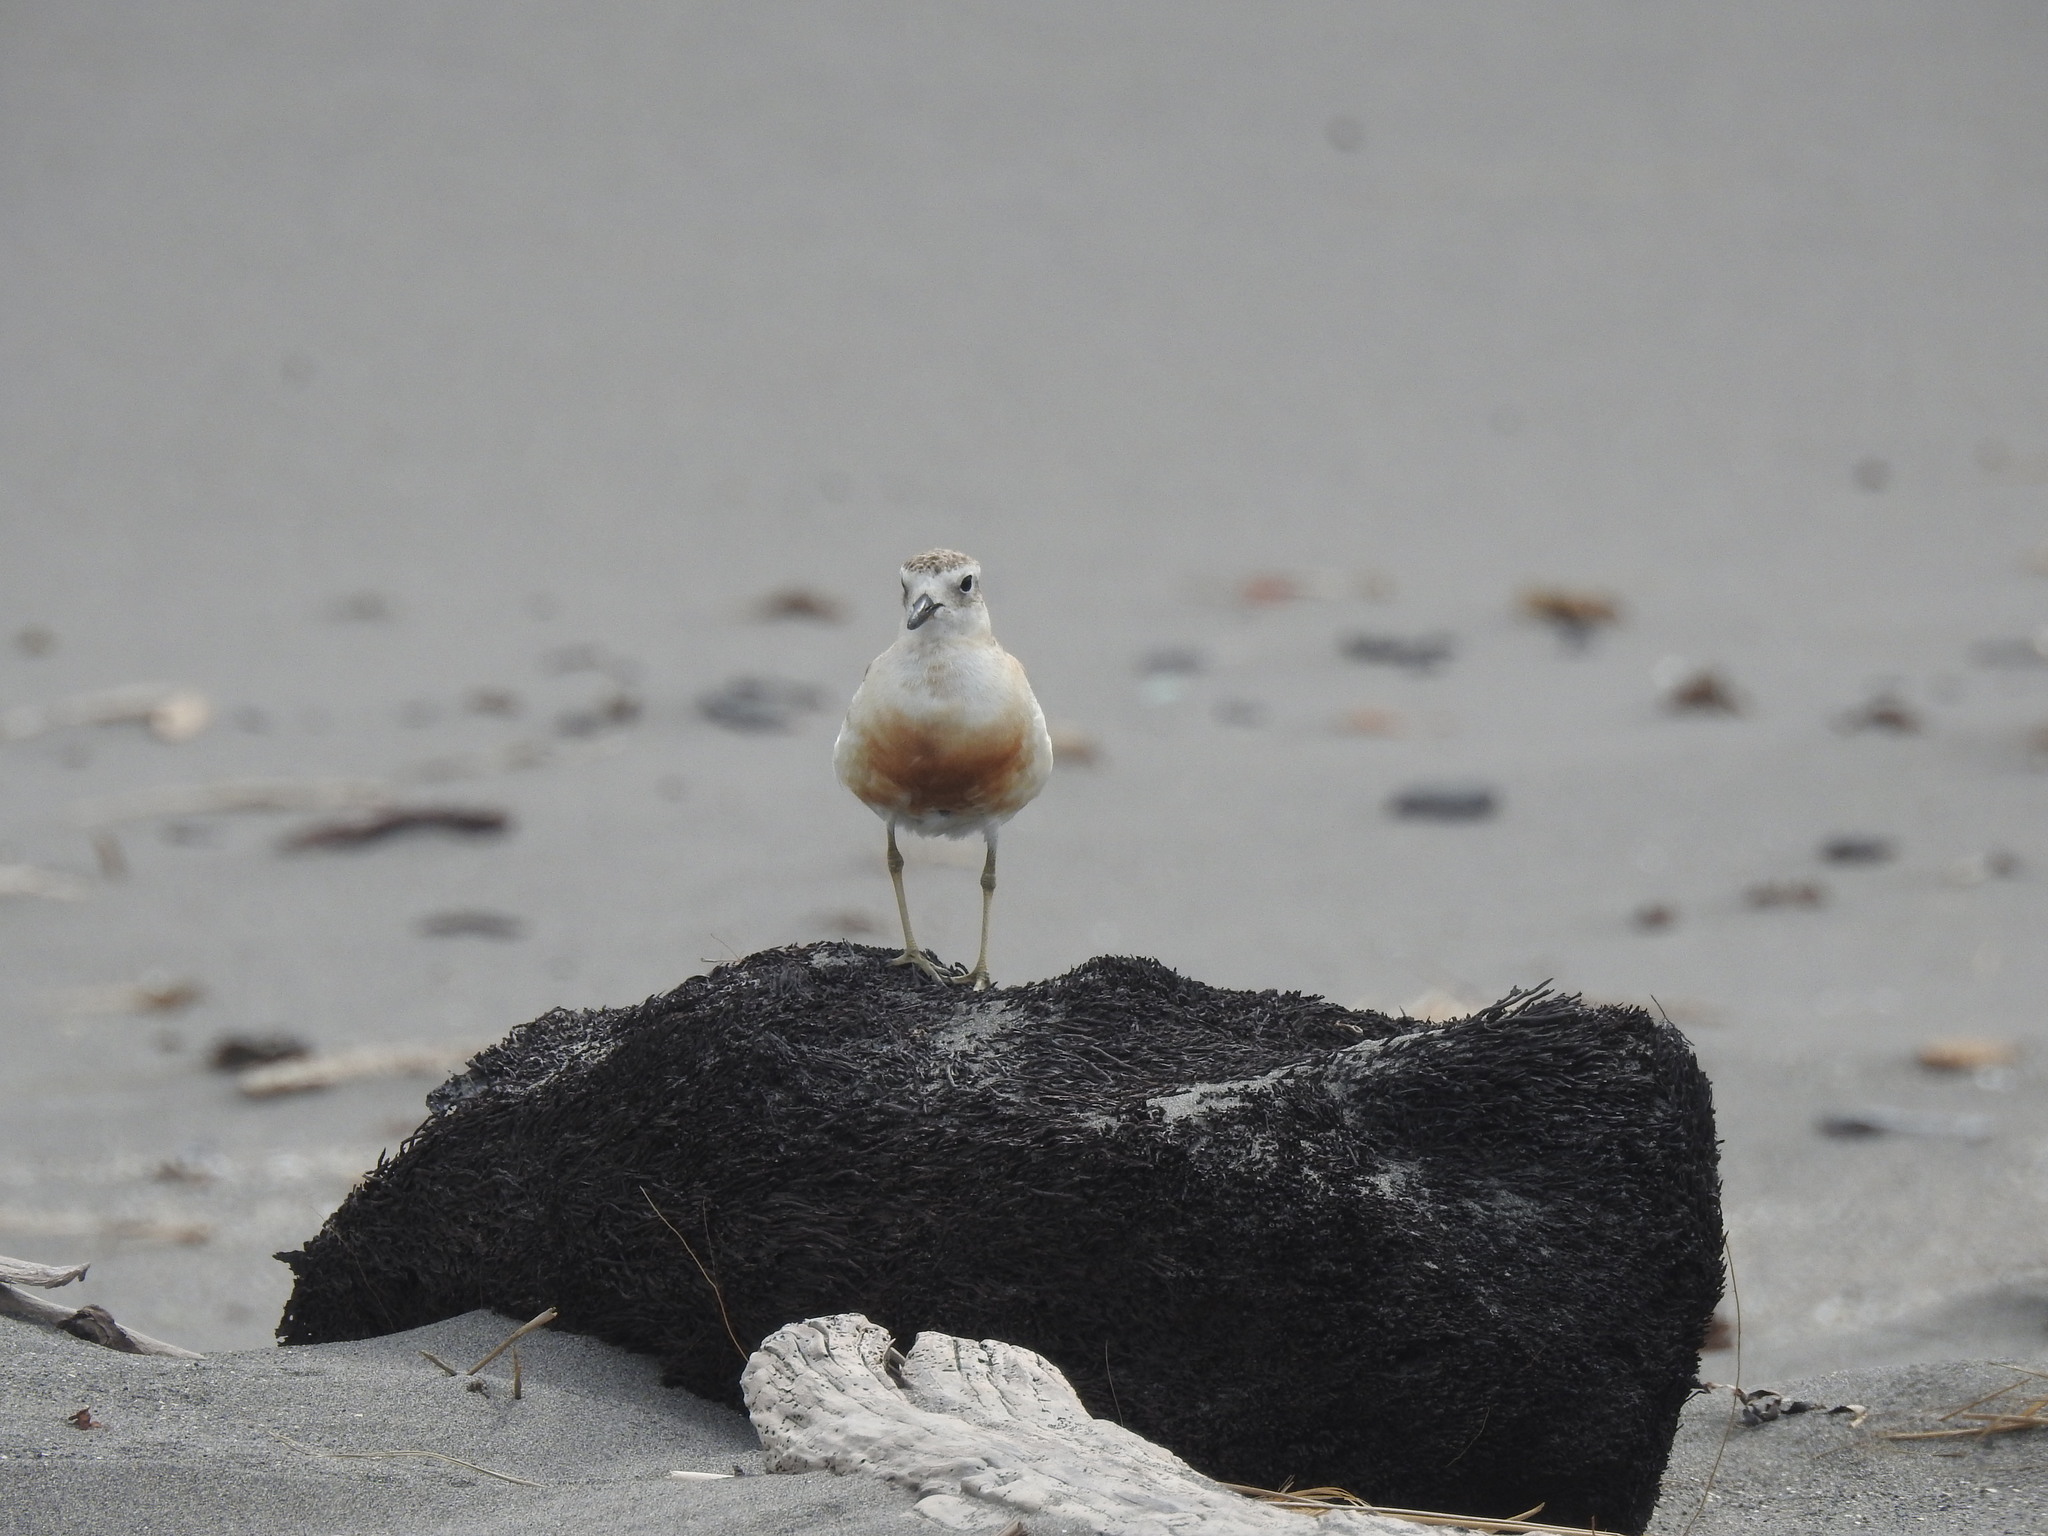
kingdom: Animalia
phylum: Chordata
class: Aves
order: Charadriiformes
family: Charadriidae
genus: Anarhynchus
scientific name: Anarhynchus
